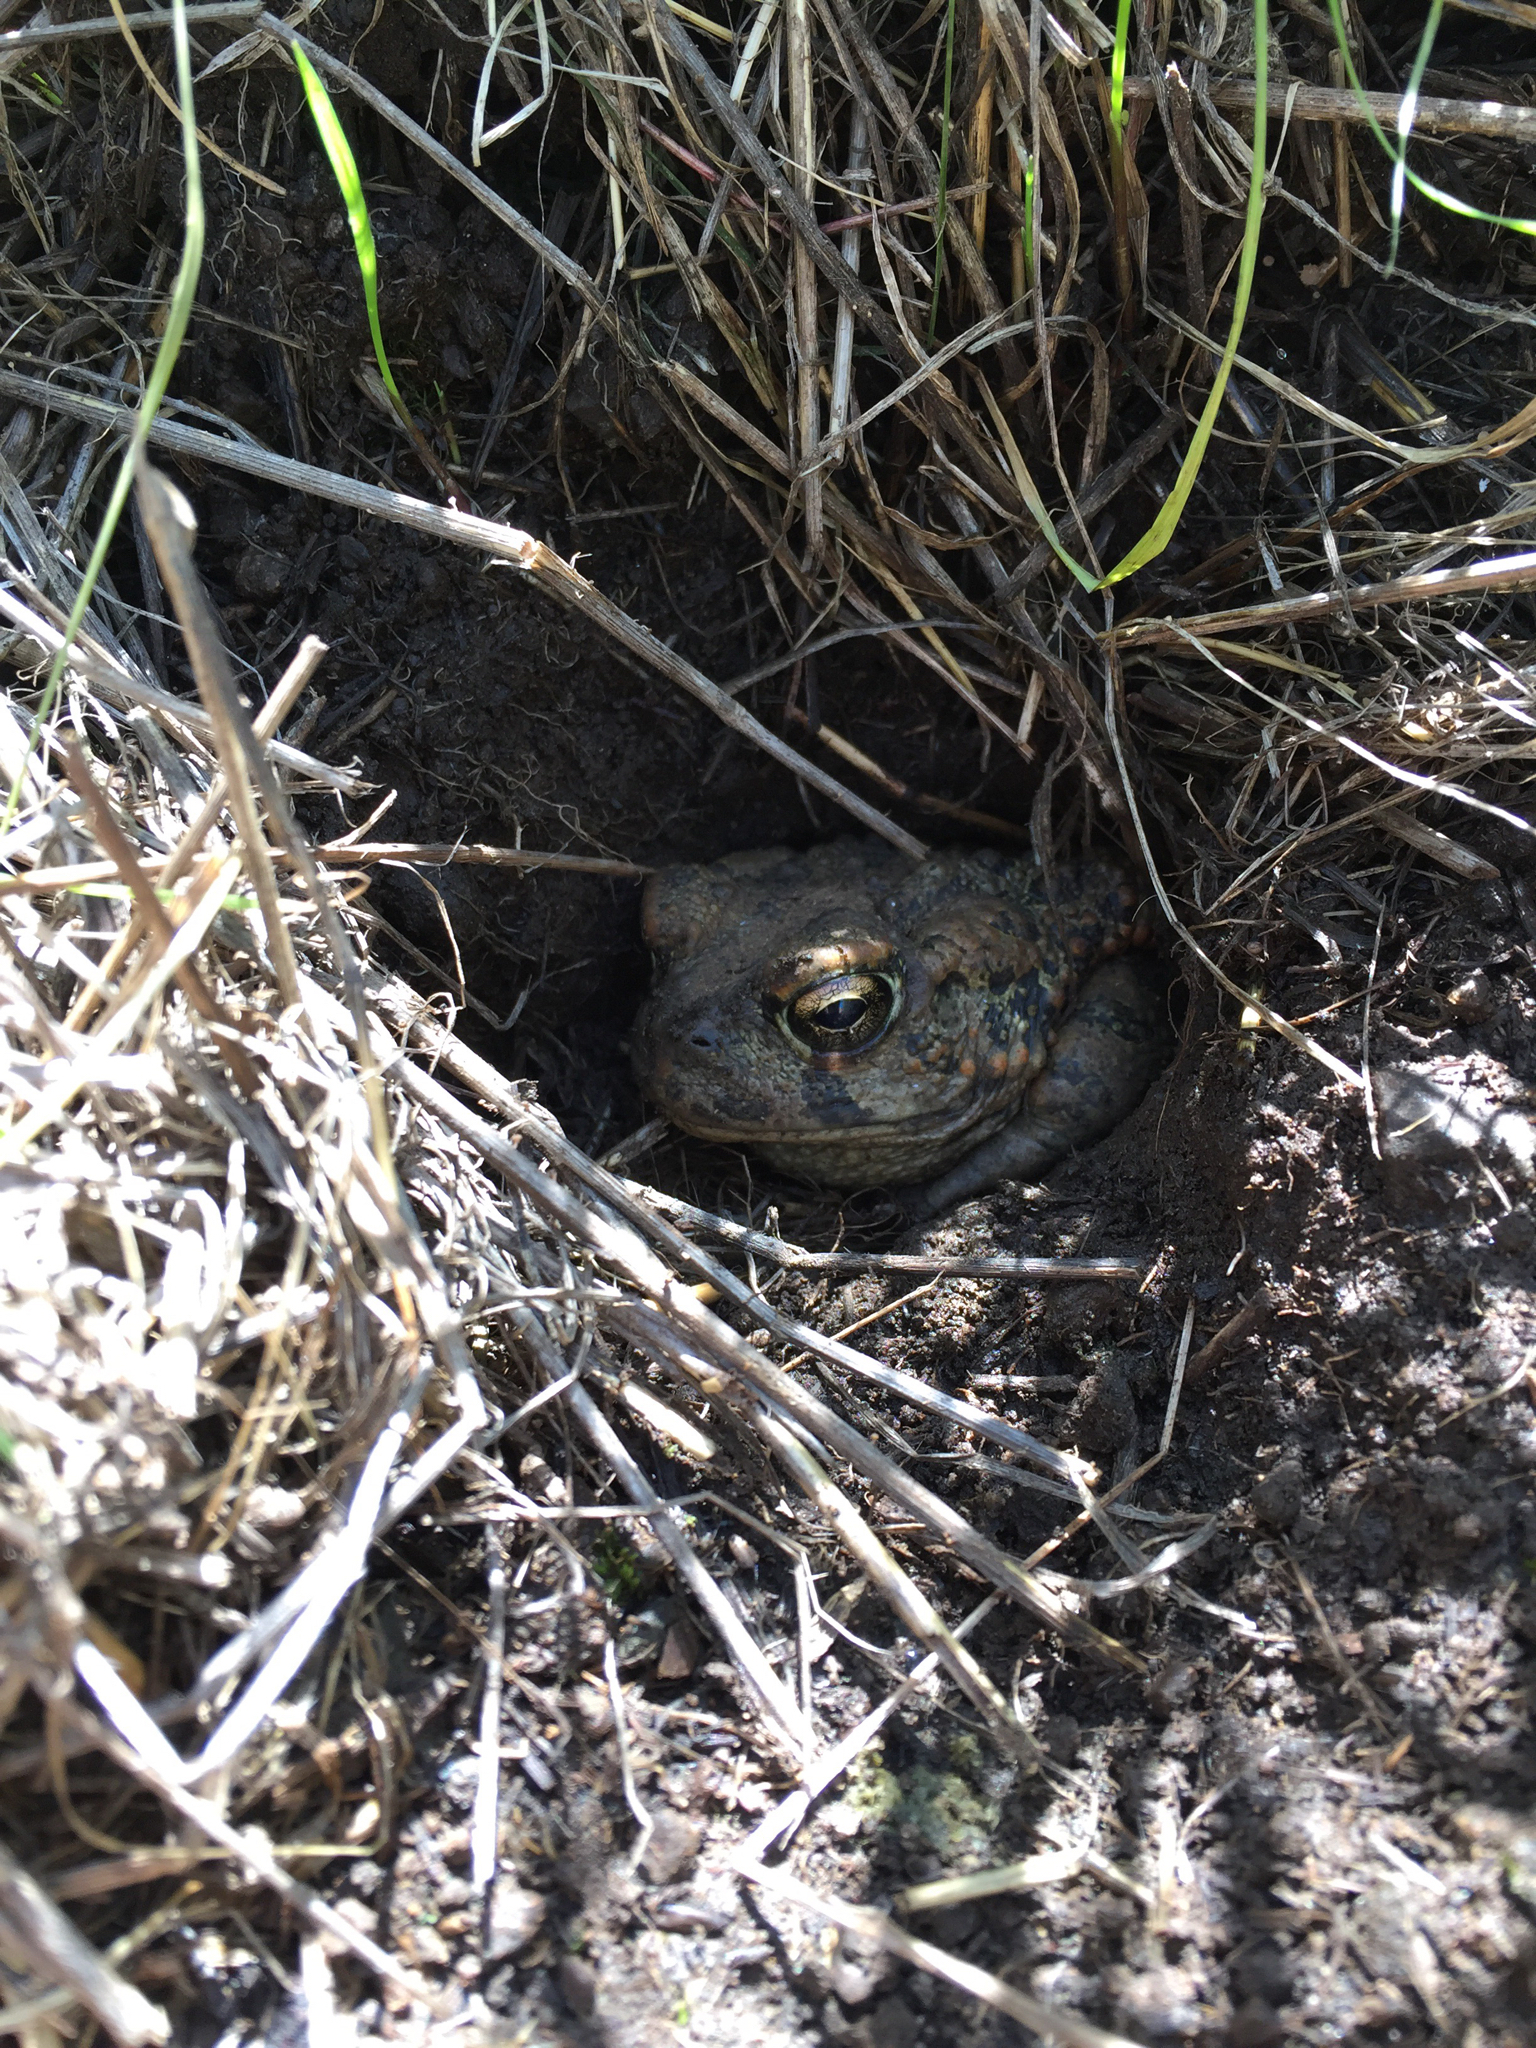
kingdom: Animalia
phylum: Chordata
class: Amphibia
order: Anura
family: Bufonidae
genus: Anaxyrus
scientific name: Anaxyrus boreas
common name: Western toad
